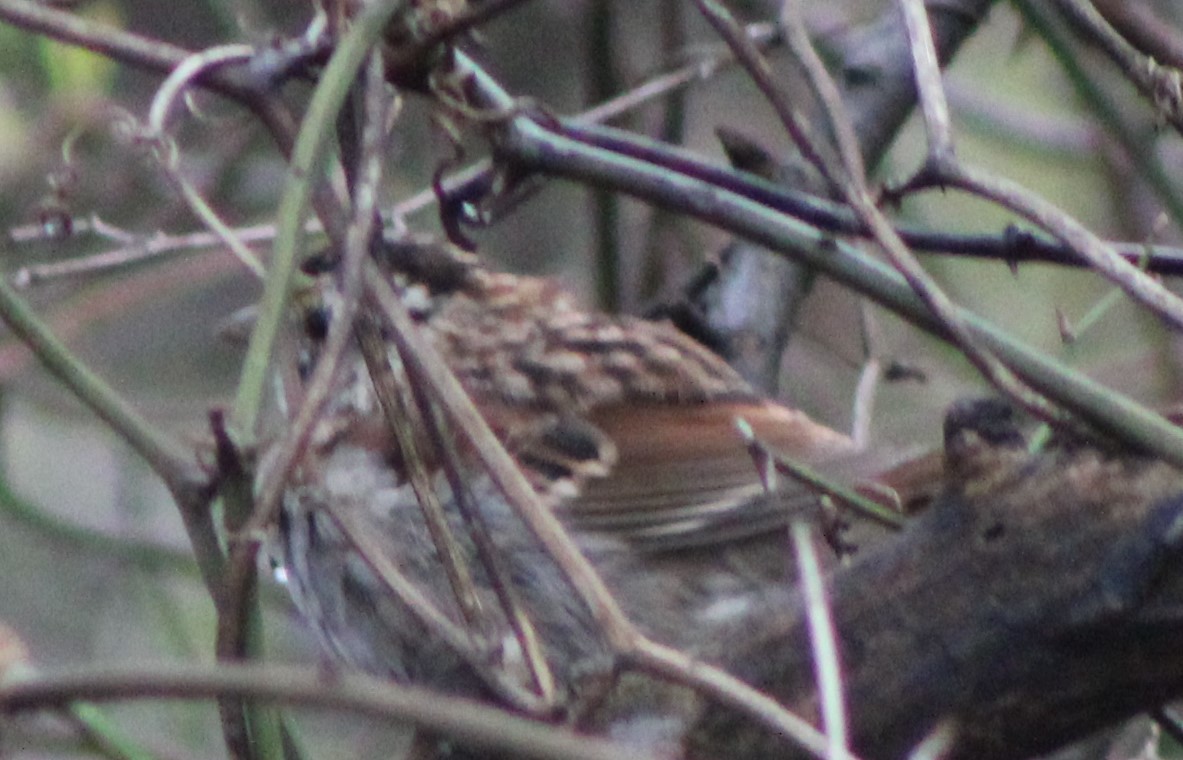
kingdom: Animalia
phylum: Chordata
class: Aves
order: Passeriformes
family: Passerellidae
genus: Zonotrichia
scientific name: Zonotrichia albicollis
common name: White-throated sparrow
